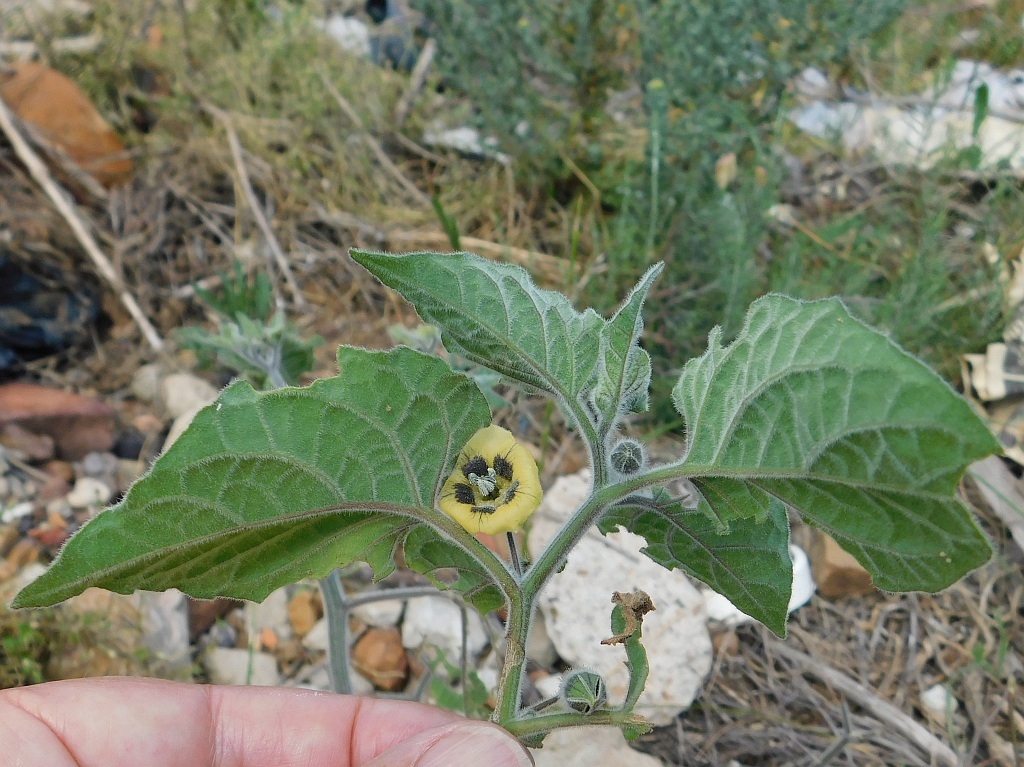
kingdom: Plantae
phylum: Tracheophyta
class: Magnoliopsida
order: Solanales
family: Solanaceae
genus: Physalis
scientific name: Physalis peruviana
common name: Cape-gooseberry
